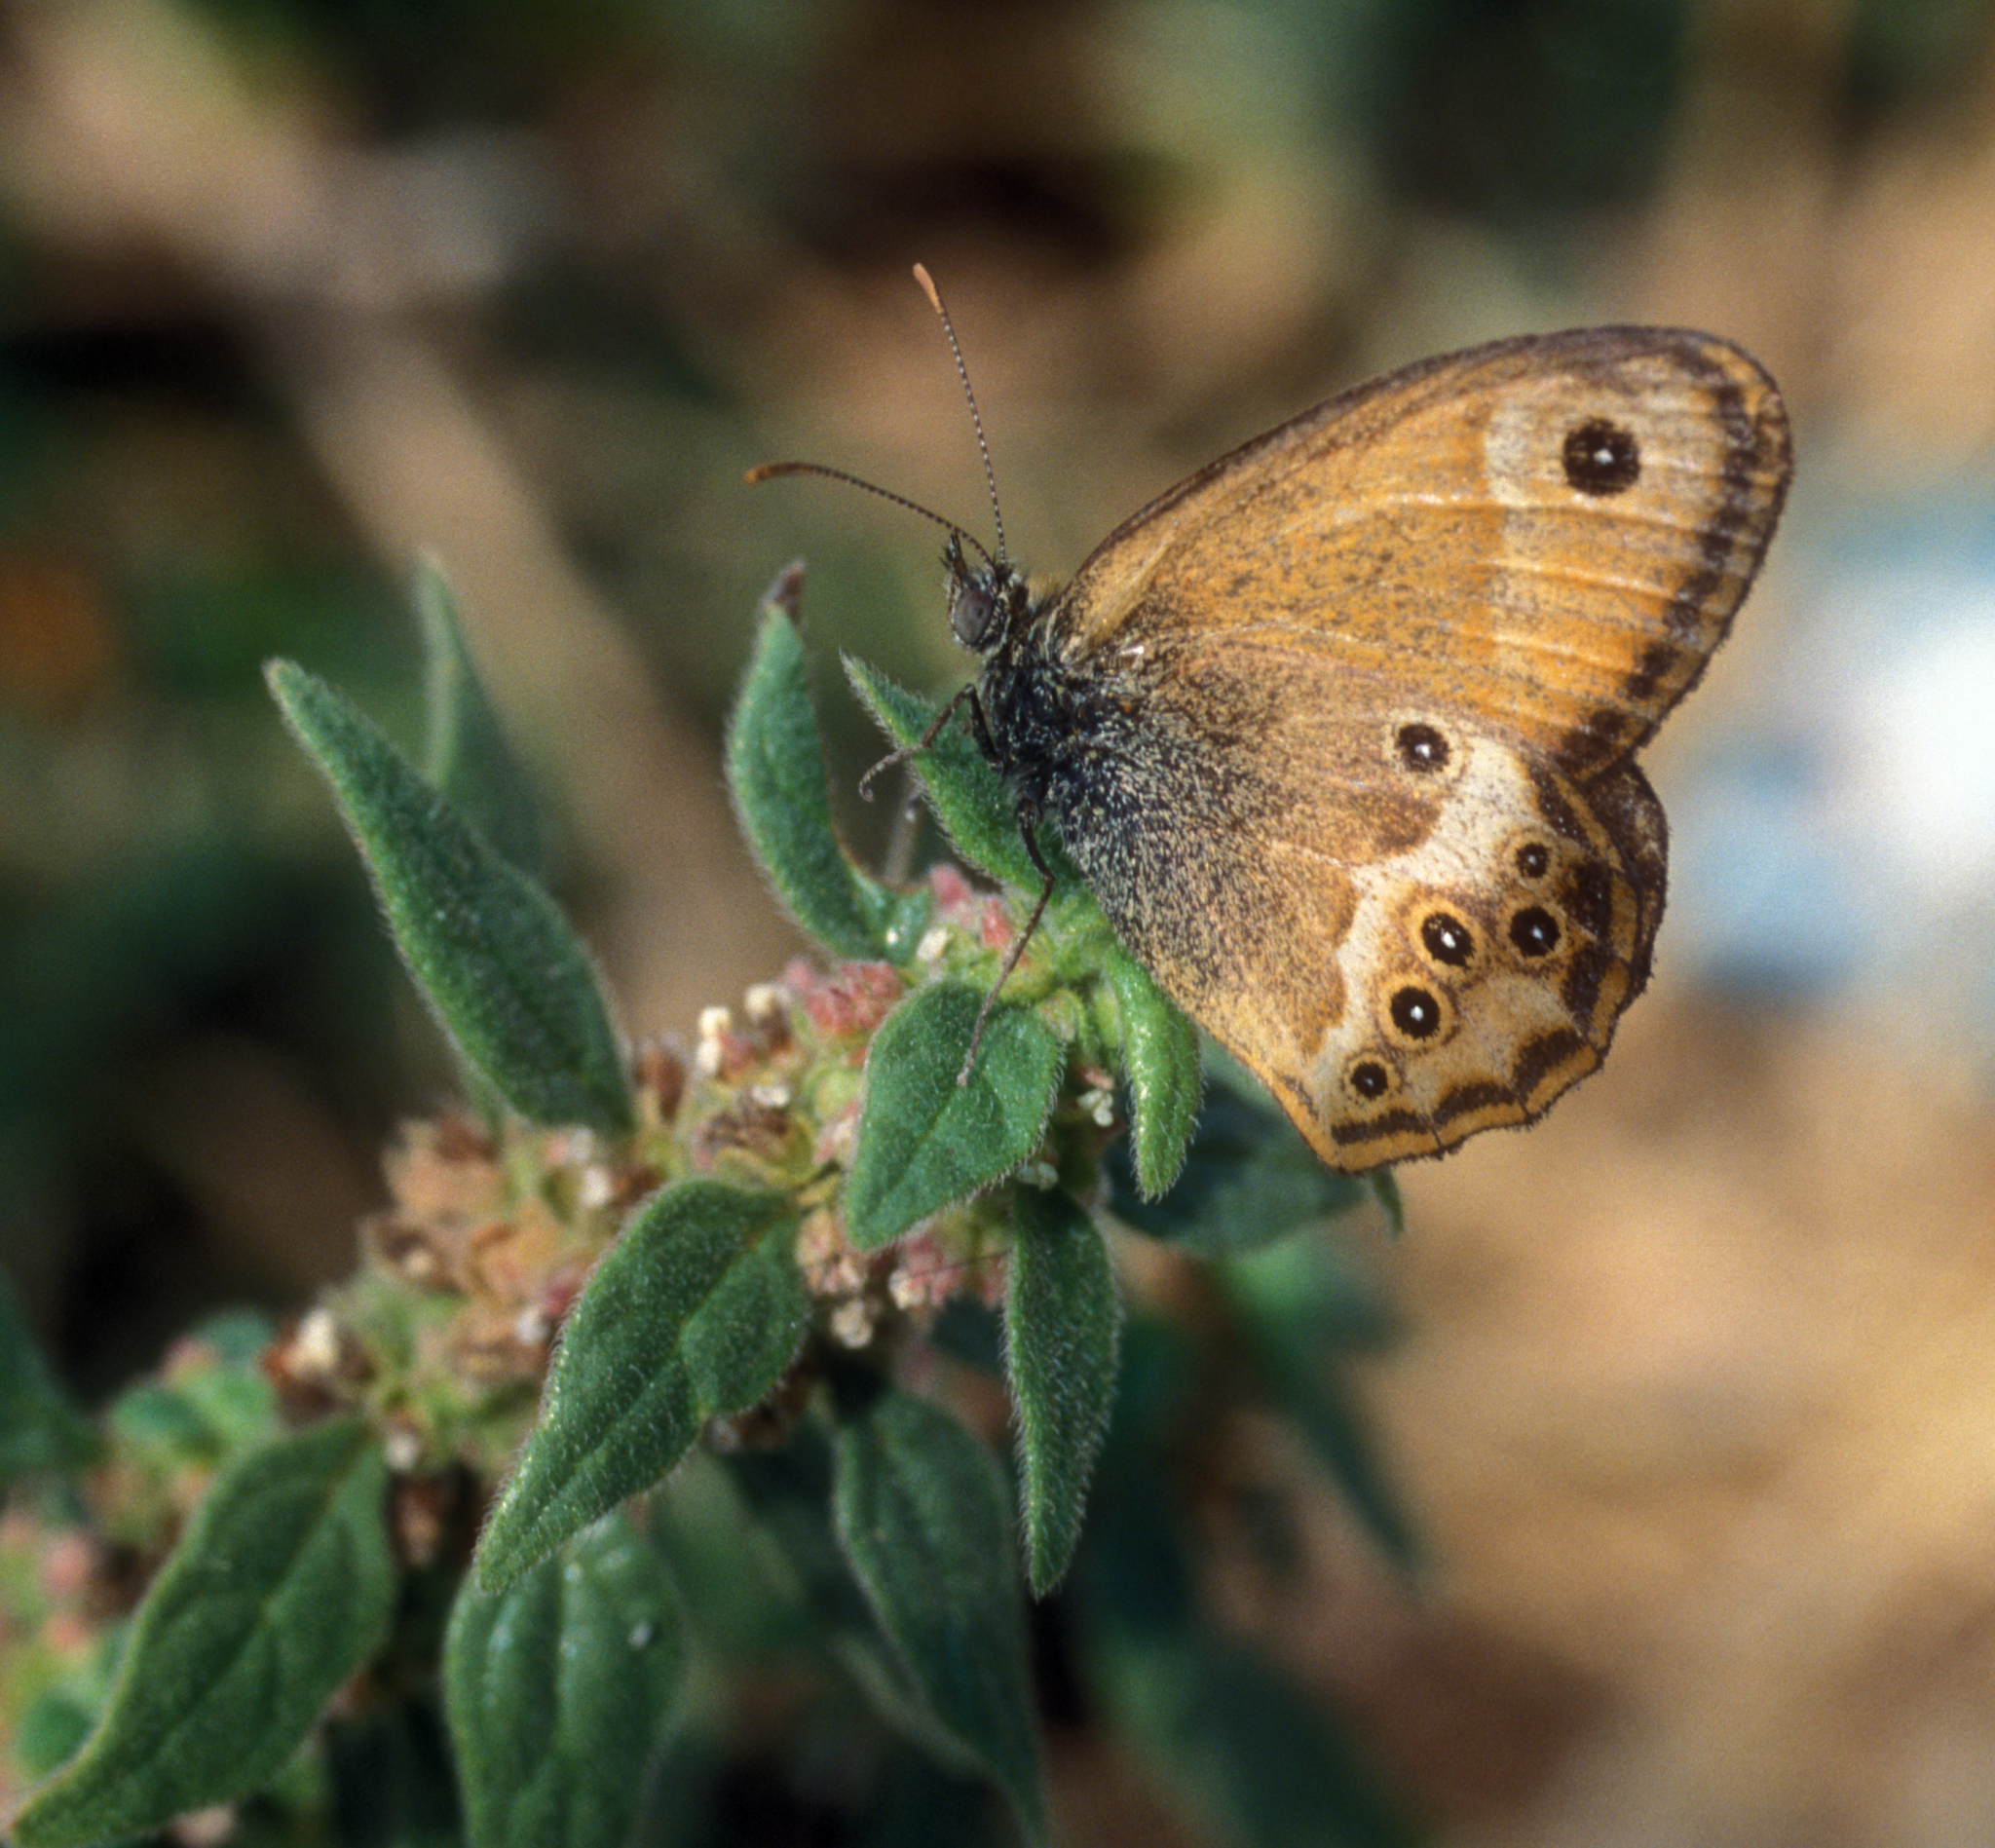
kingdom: Animalia
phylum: Arthropoda
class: Insecta
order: Lepidoptera
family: Nymphalidae
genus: Coenonympha
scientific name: Coenonympha dorus
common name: Dusky heath
